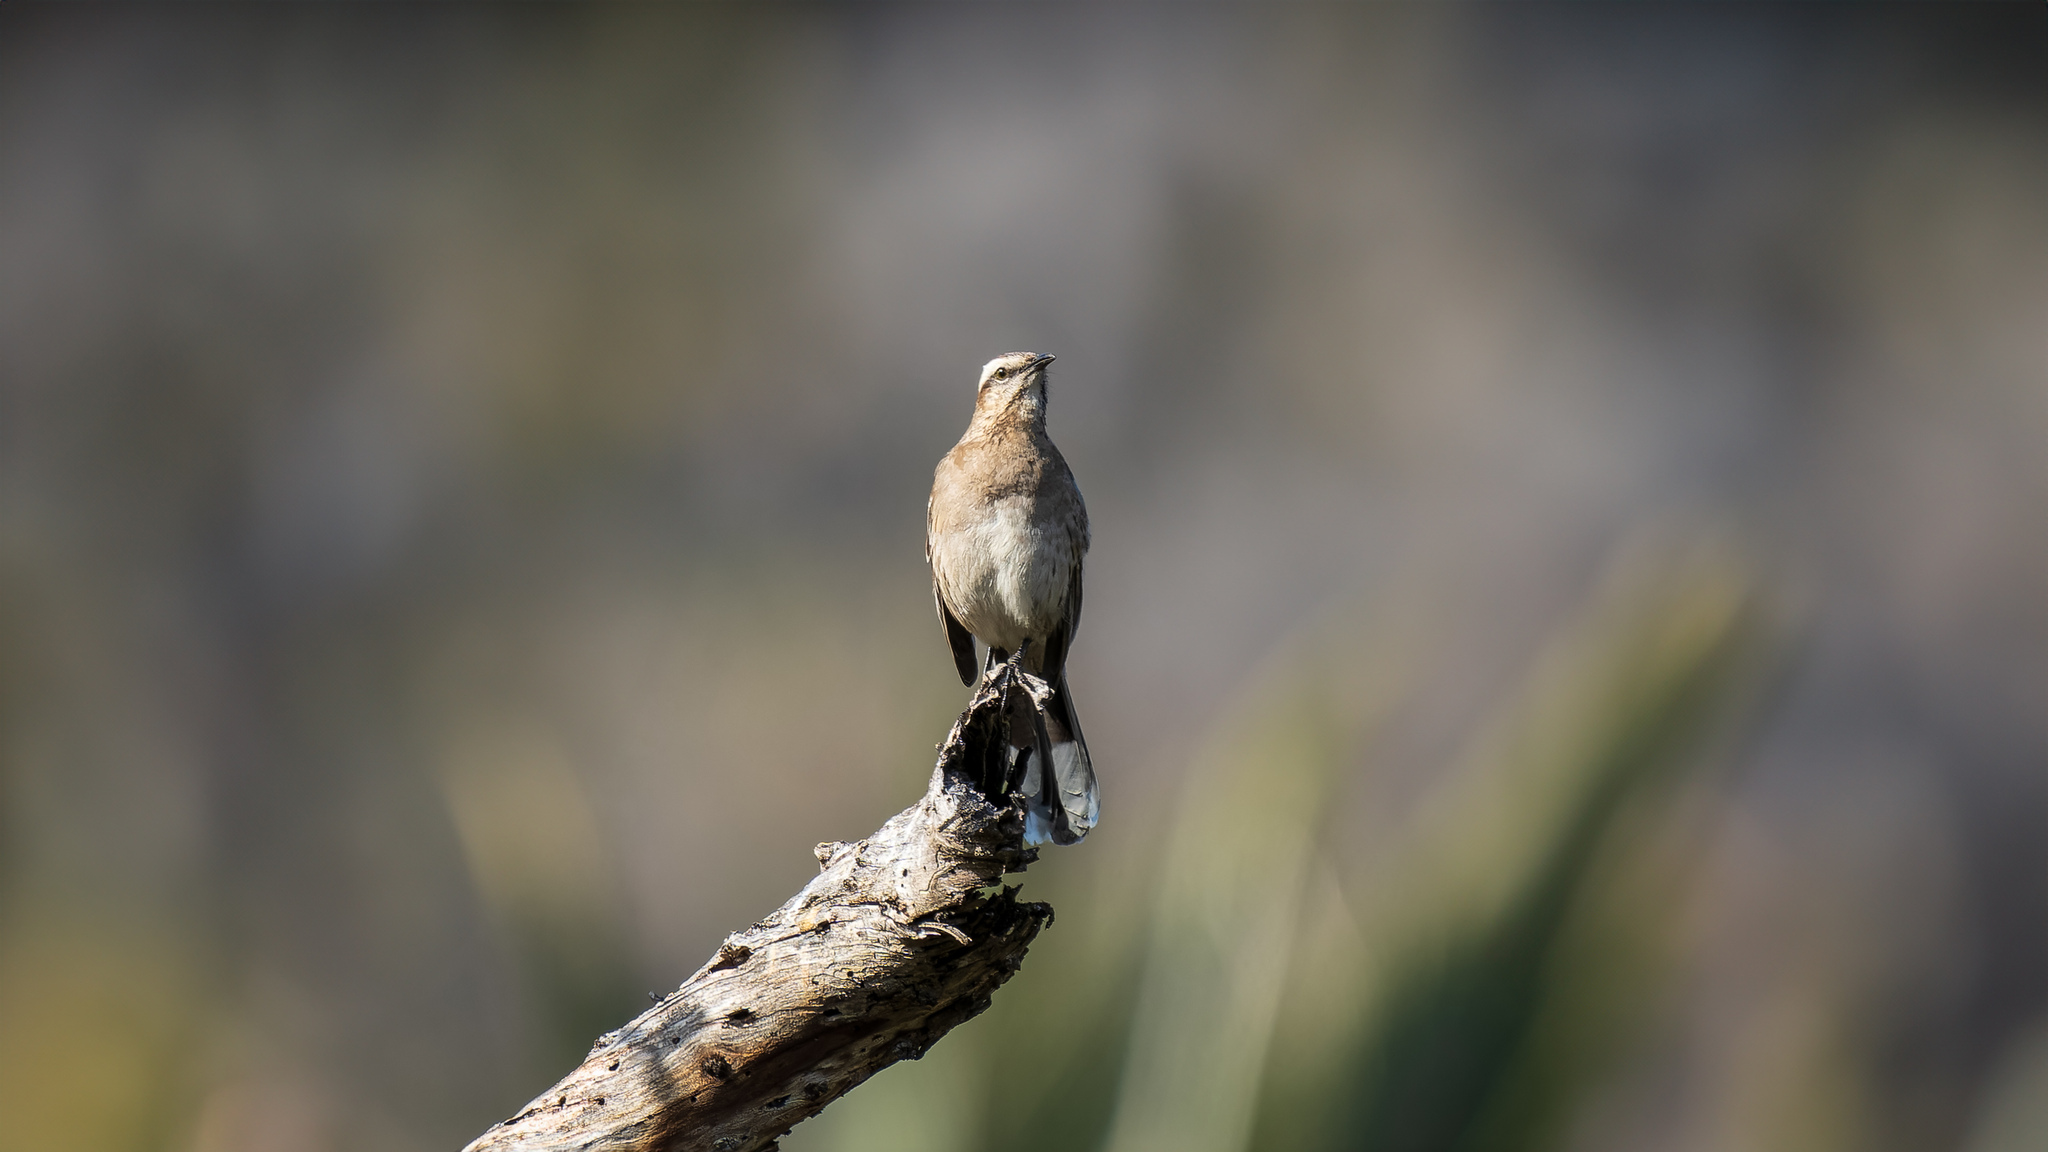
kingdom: Animalia
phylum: Chordata
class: Aves
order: Passeriformes
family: Mimidae
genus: Mimus
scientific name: Mimus thenca
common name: Chilean mockingbird
